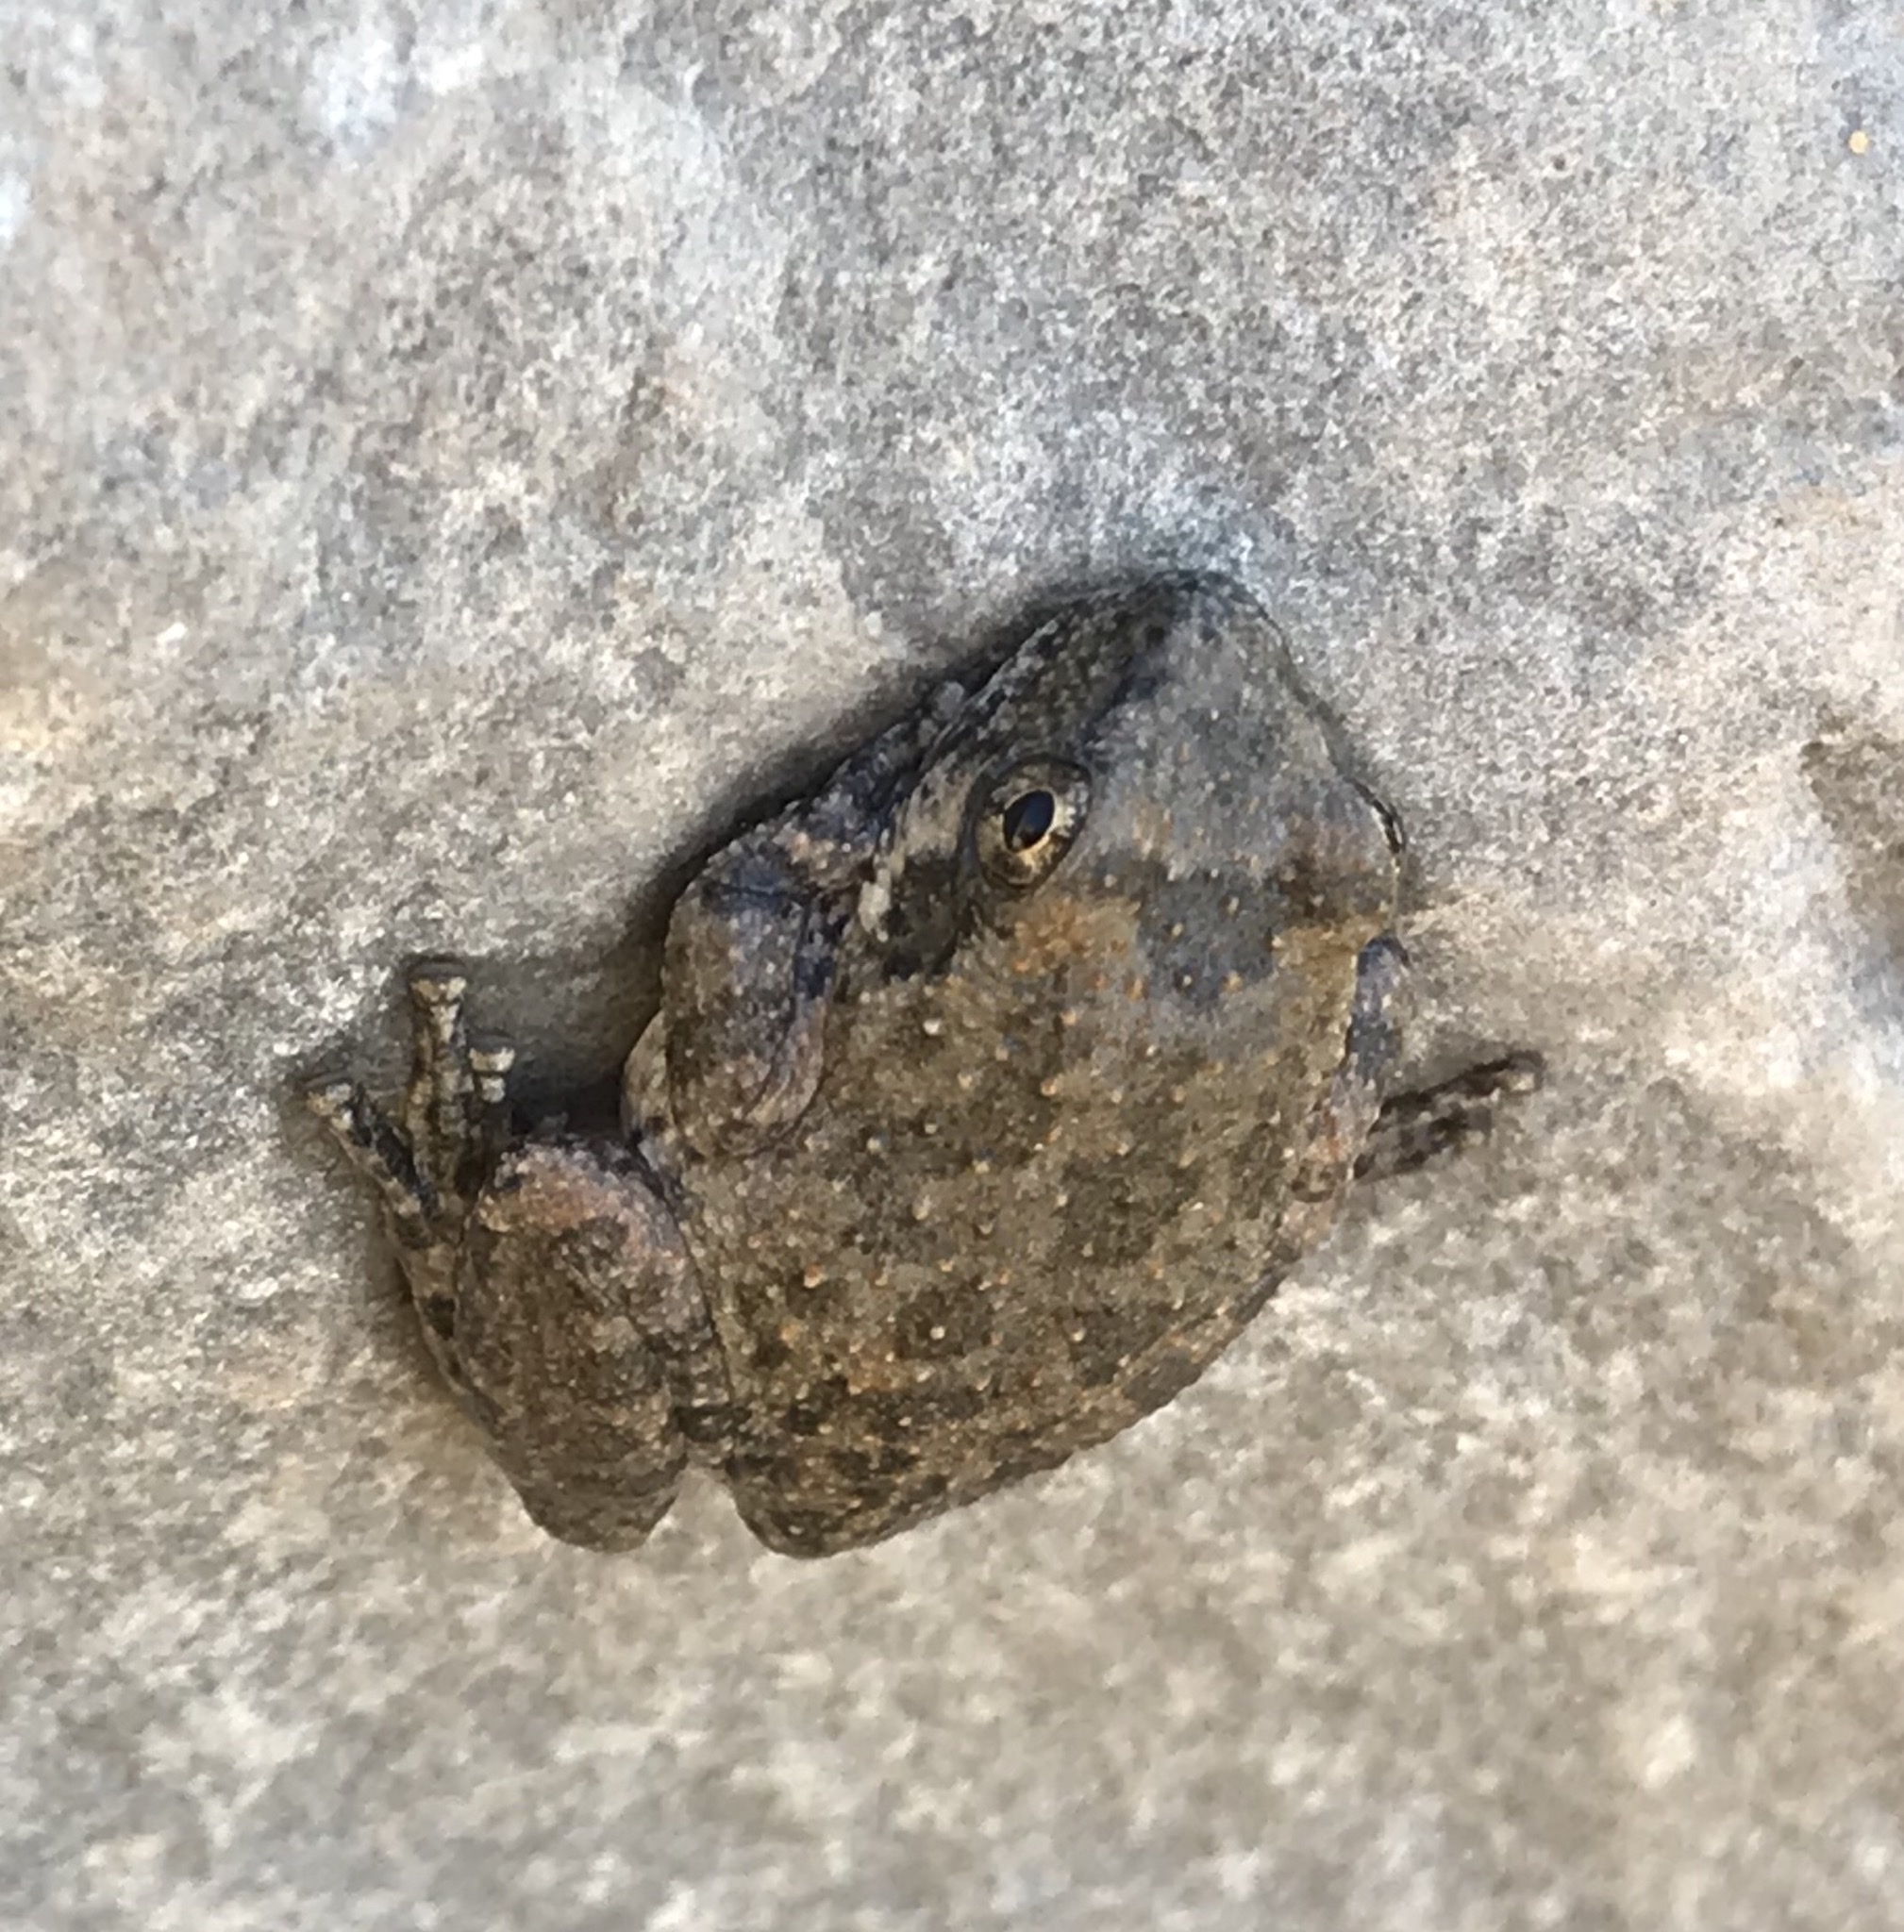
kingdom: Animalia
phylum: Chordata
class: Amphibia
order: Anura
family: Hylidae
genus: Pseudacris
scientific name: Pseudacris cadaverina
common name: California chorus frog
